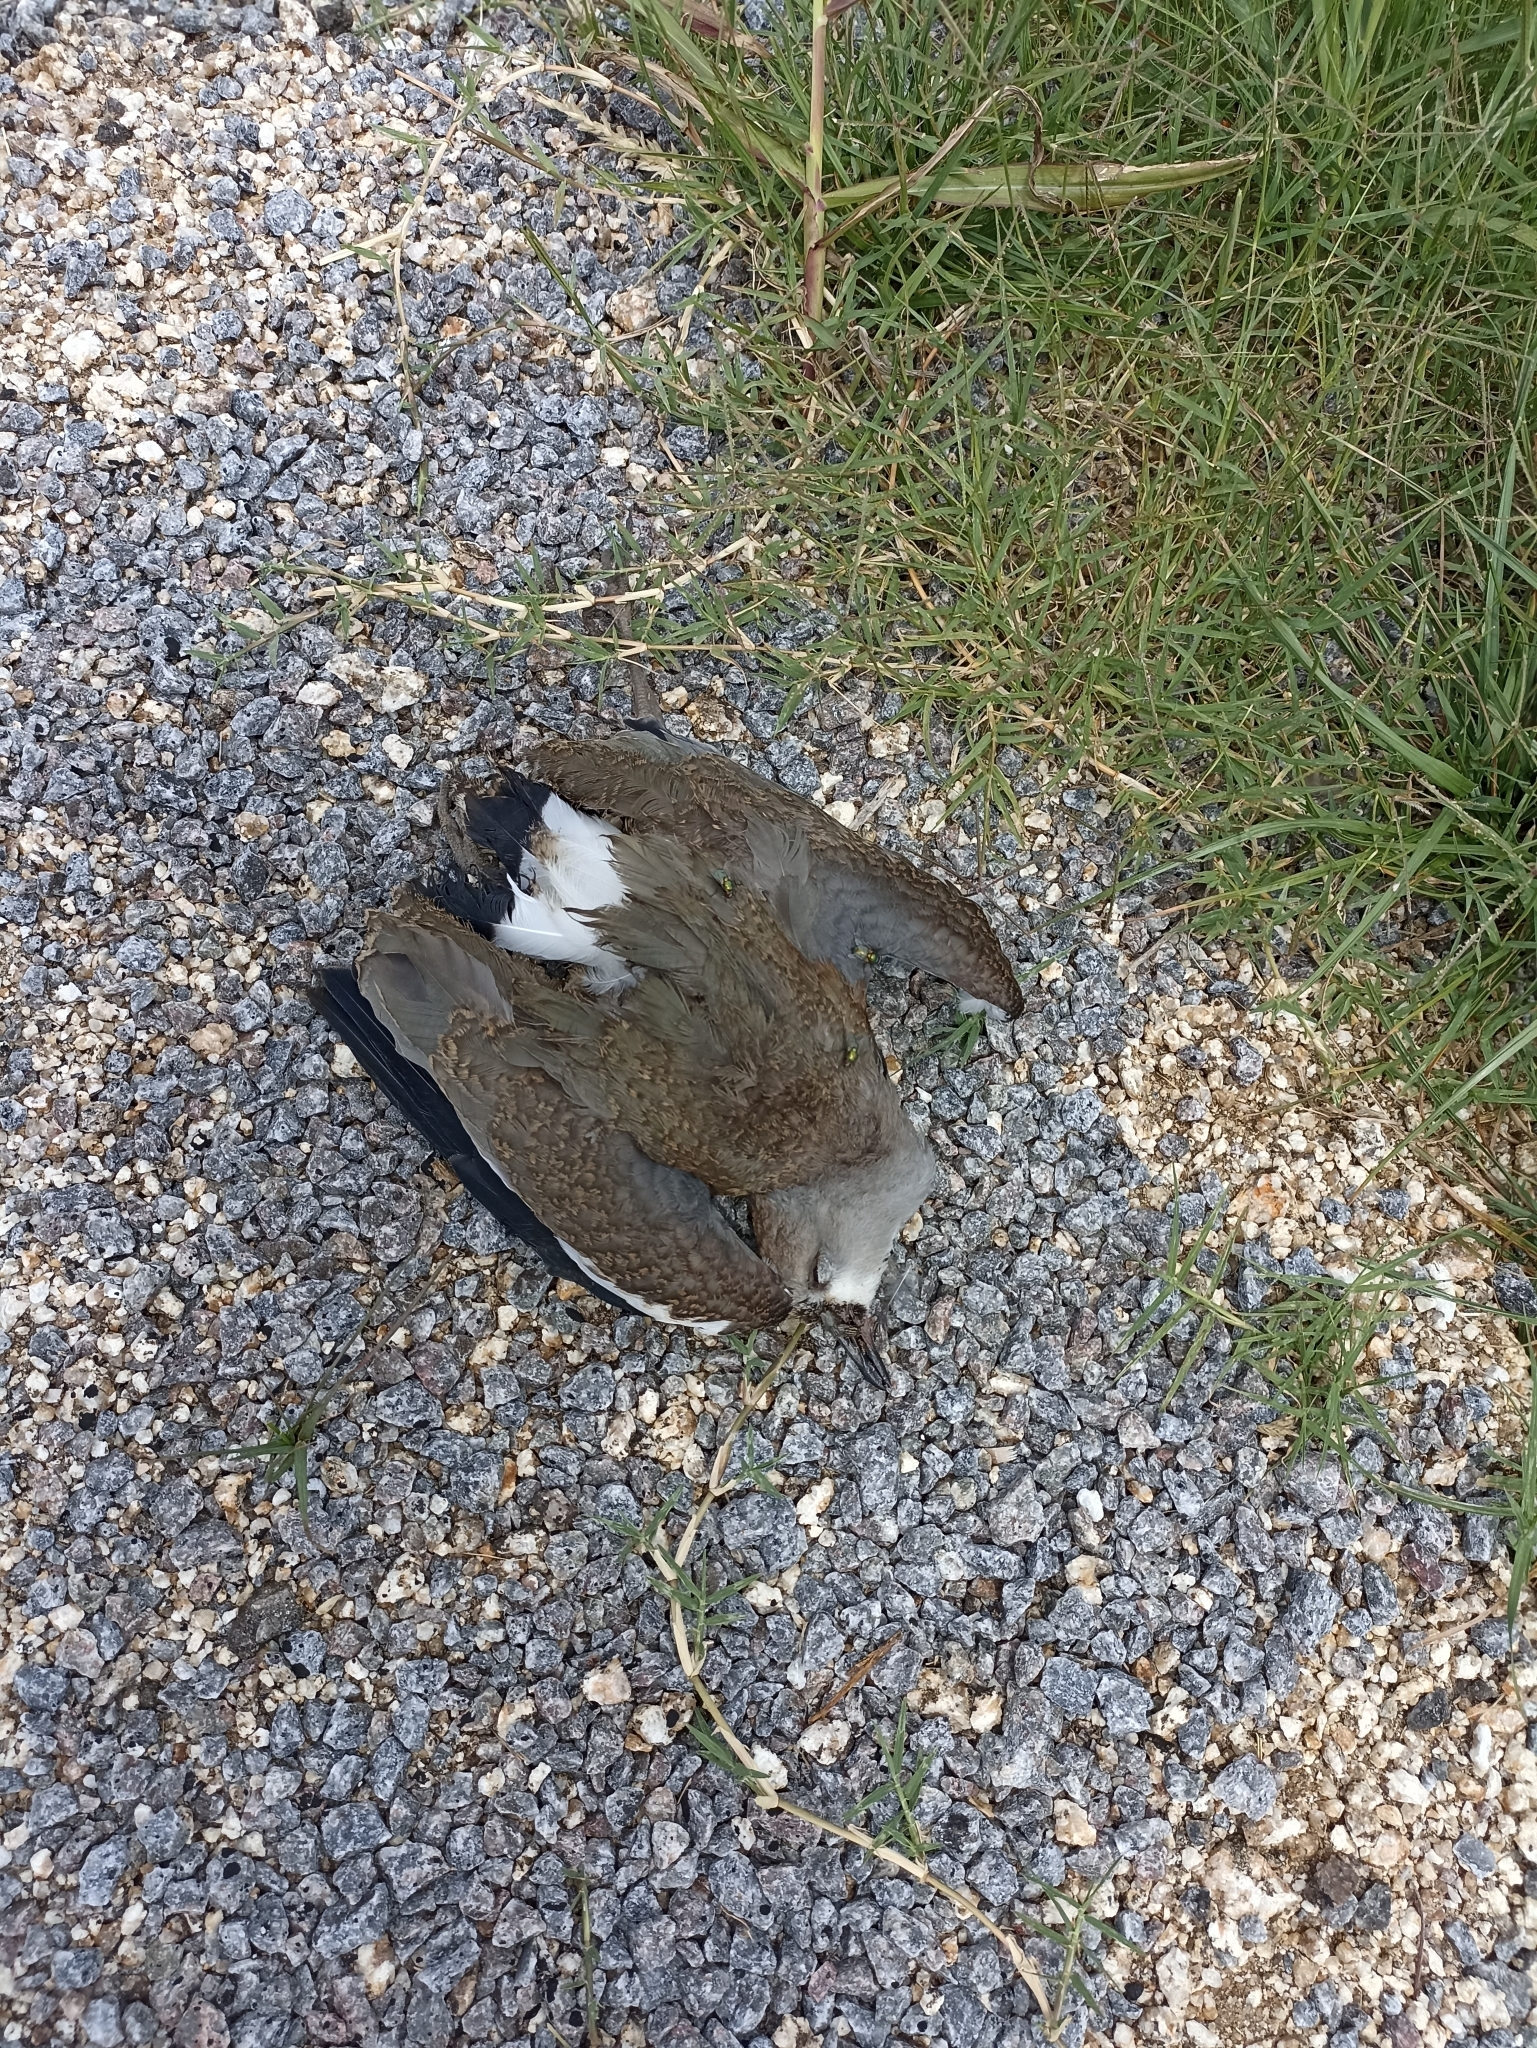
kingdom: Animalia
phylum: Chordata
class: Aves
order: Charadriiformes
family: Charadriidae
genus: Vanellus
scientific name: Vanellus chilensis
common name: Southern lapwing
